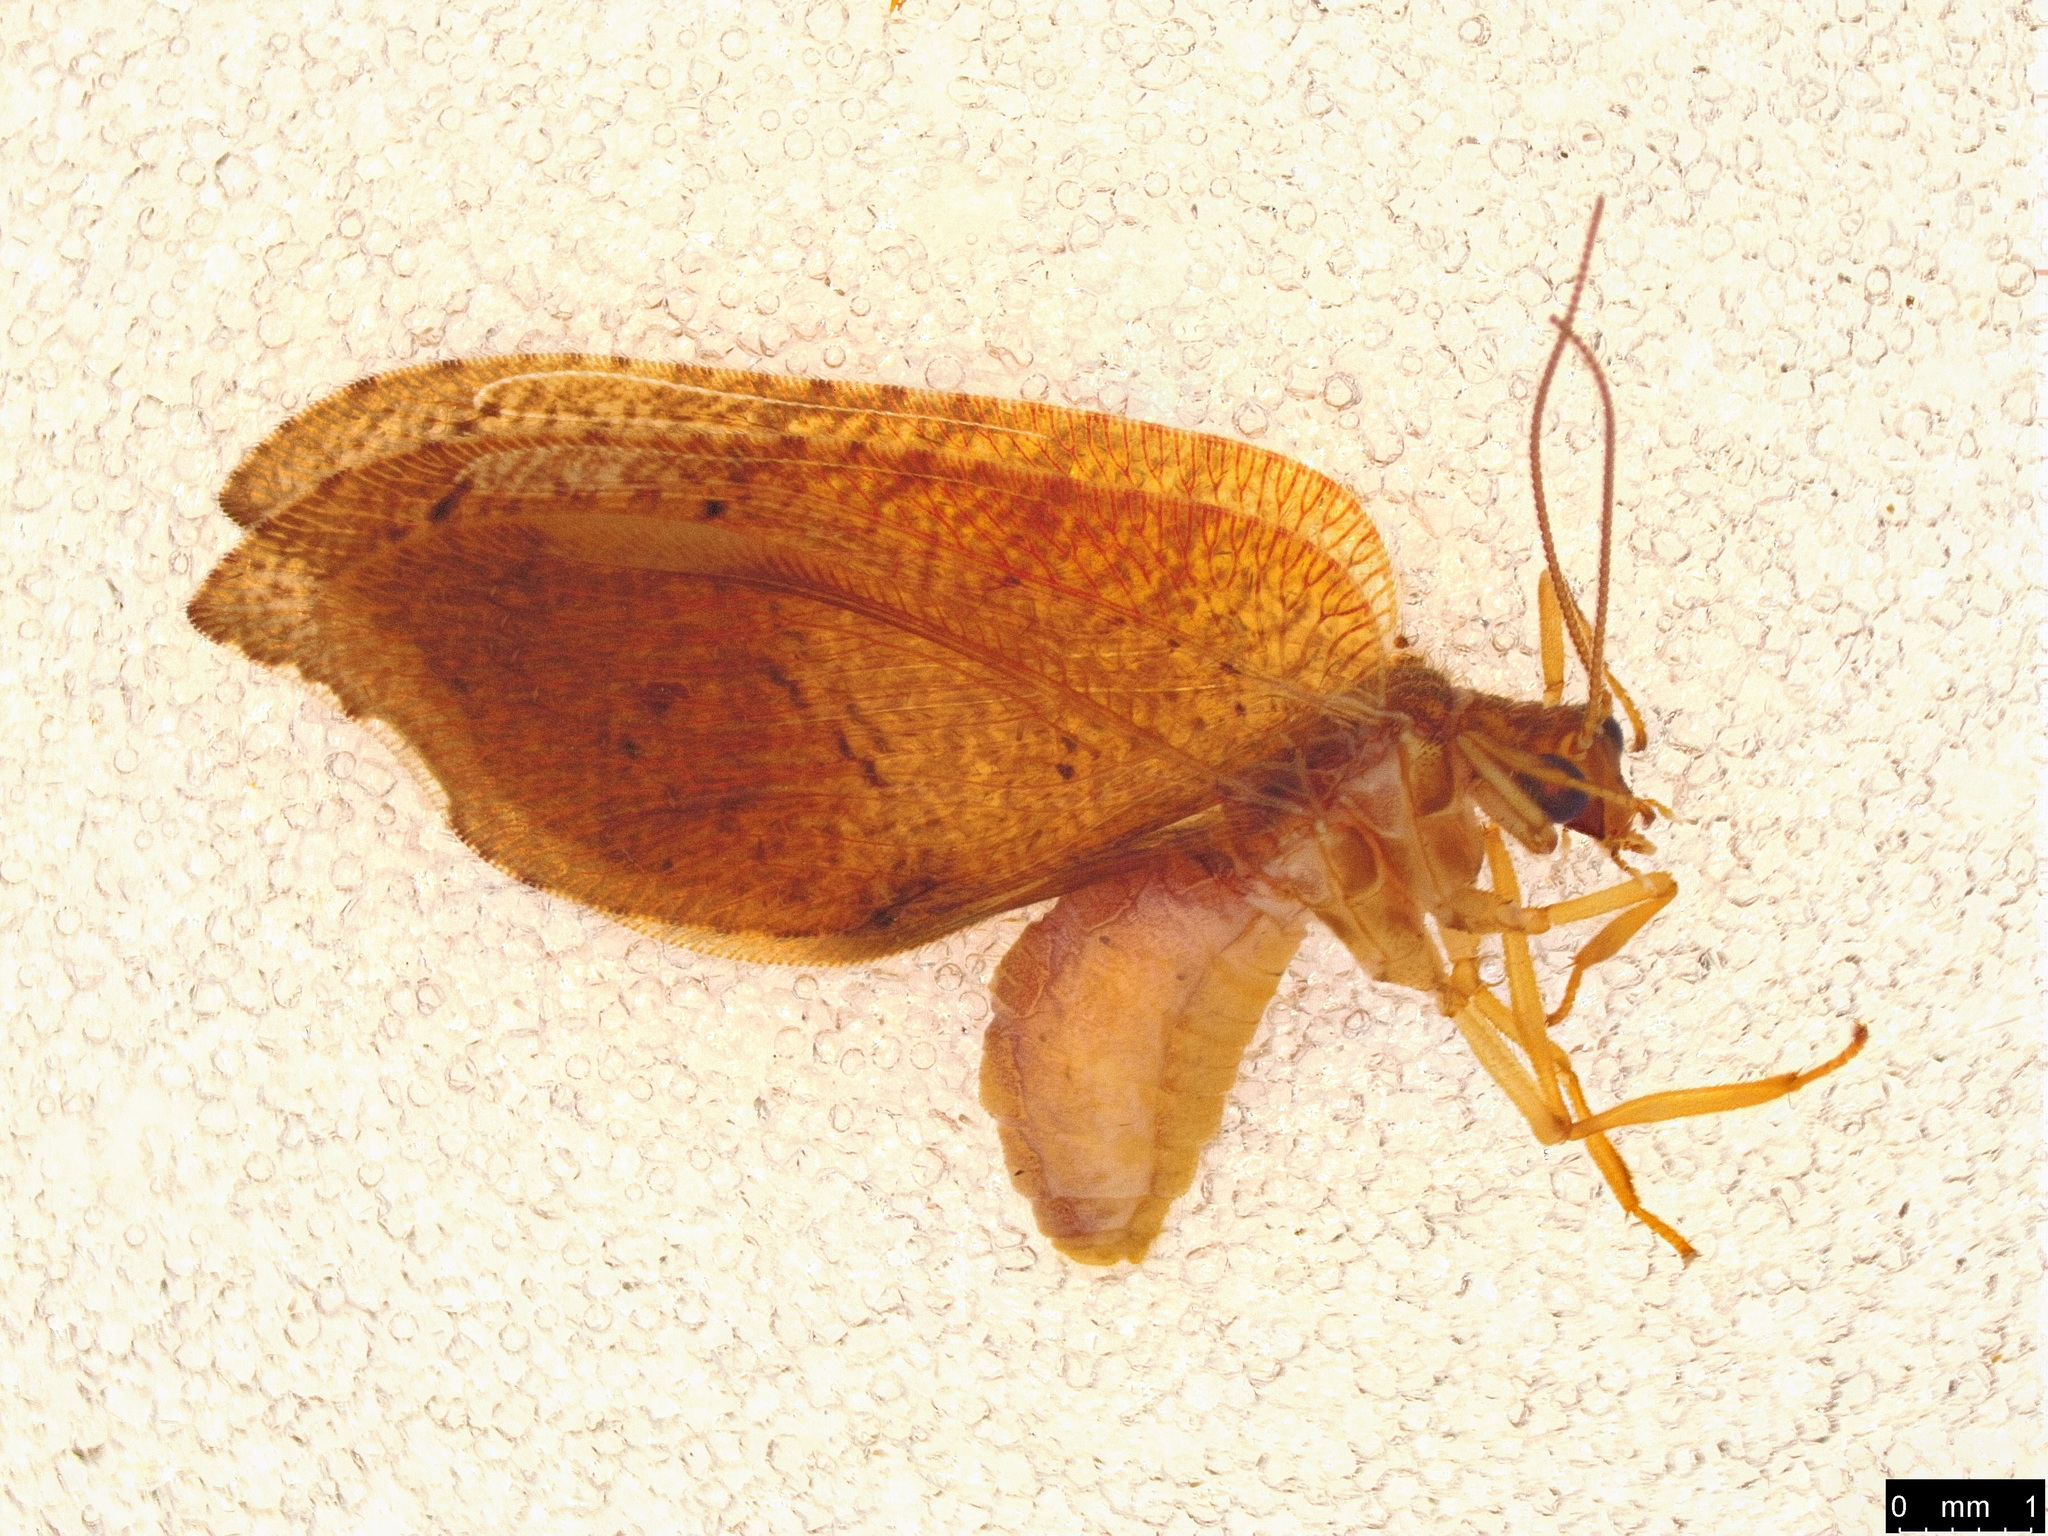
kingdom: Animalia
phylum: Arthropoda
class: Insecta
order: Neuroptera
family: Hemerobiidae
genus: Drepanacra
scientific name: Drepanacra binocula
